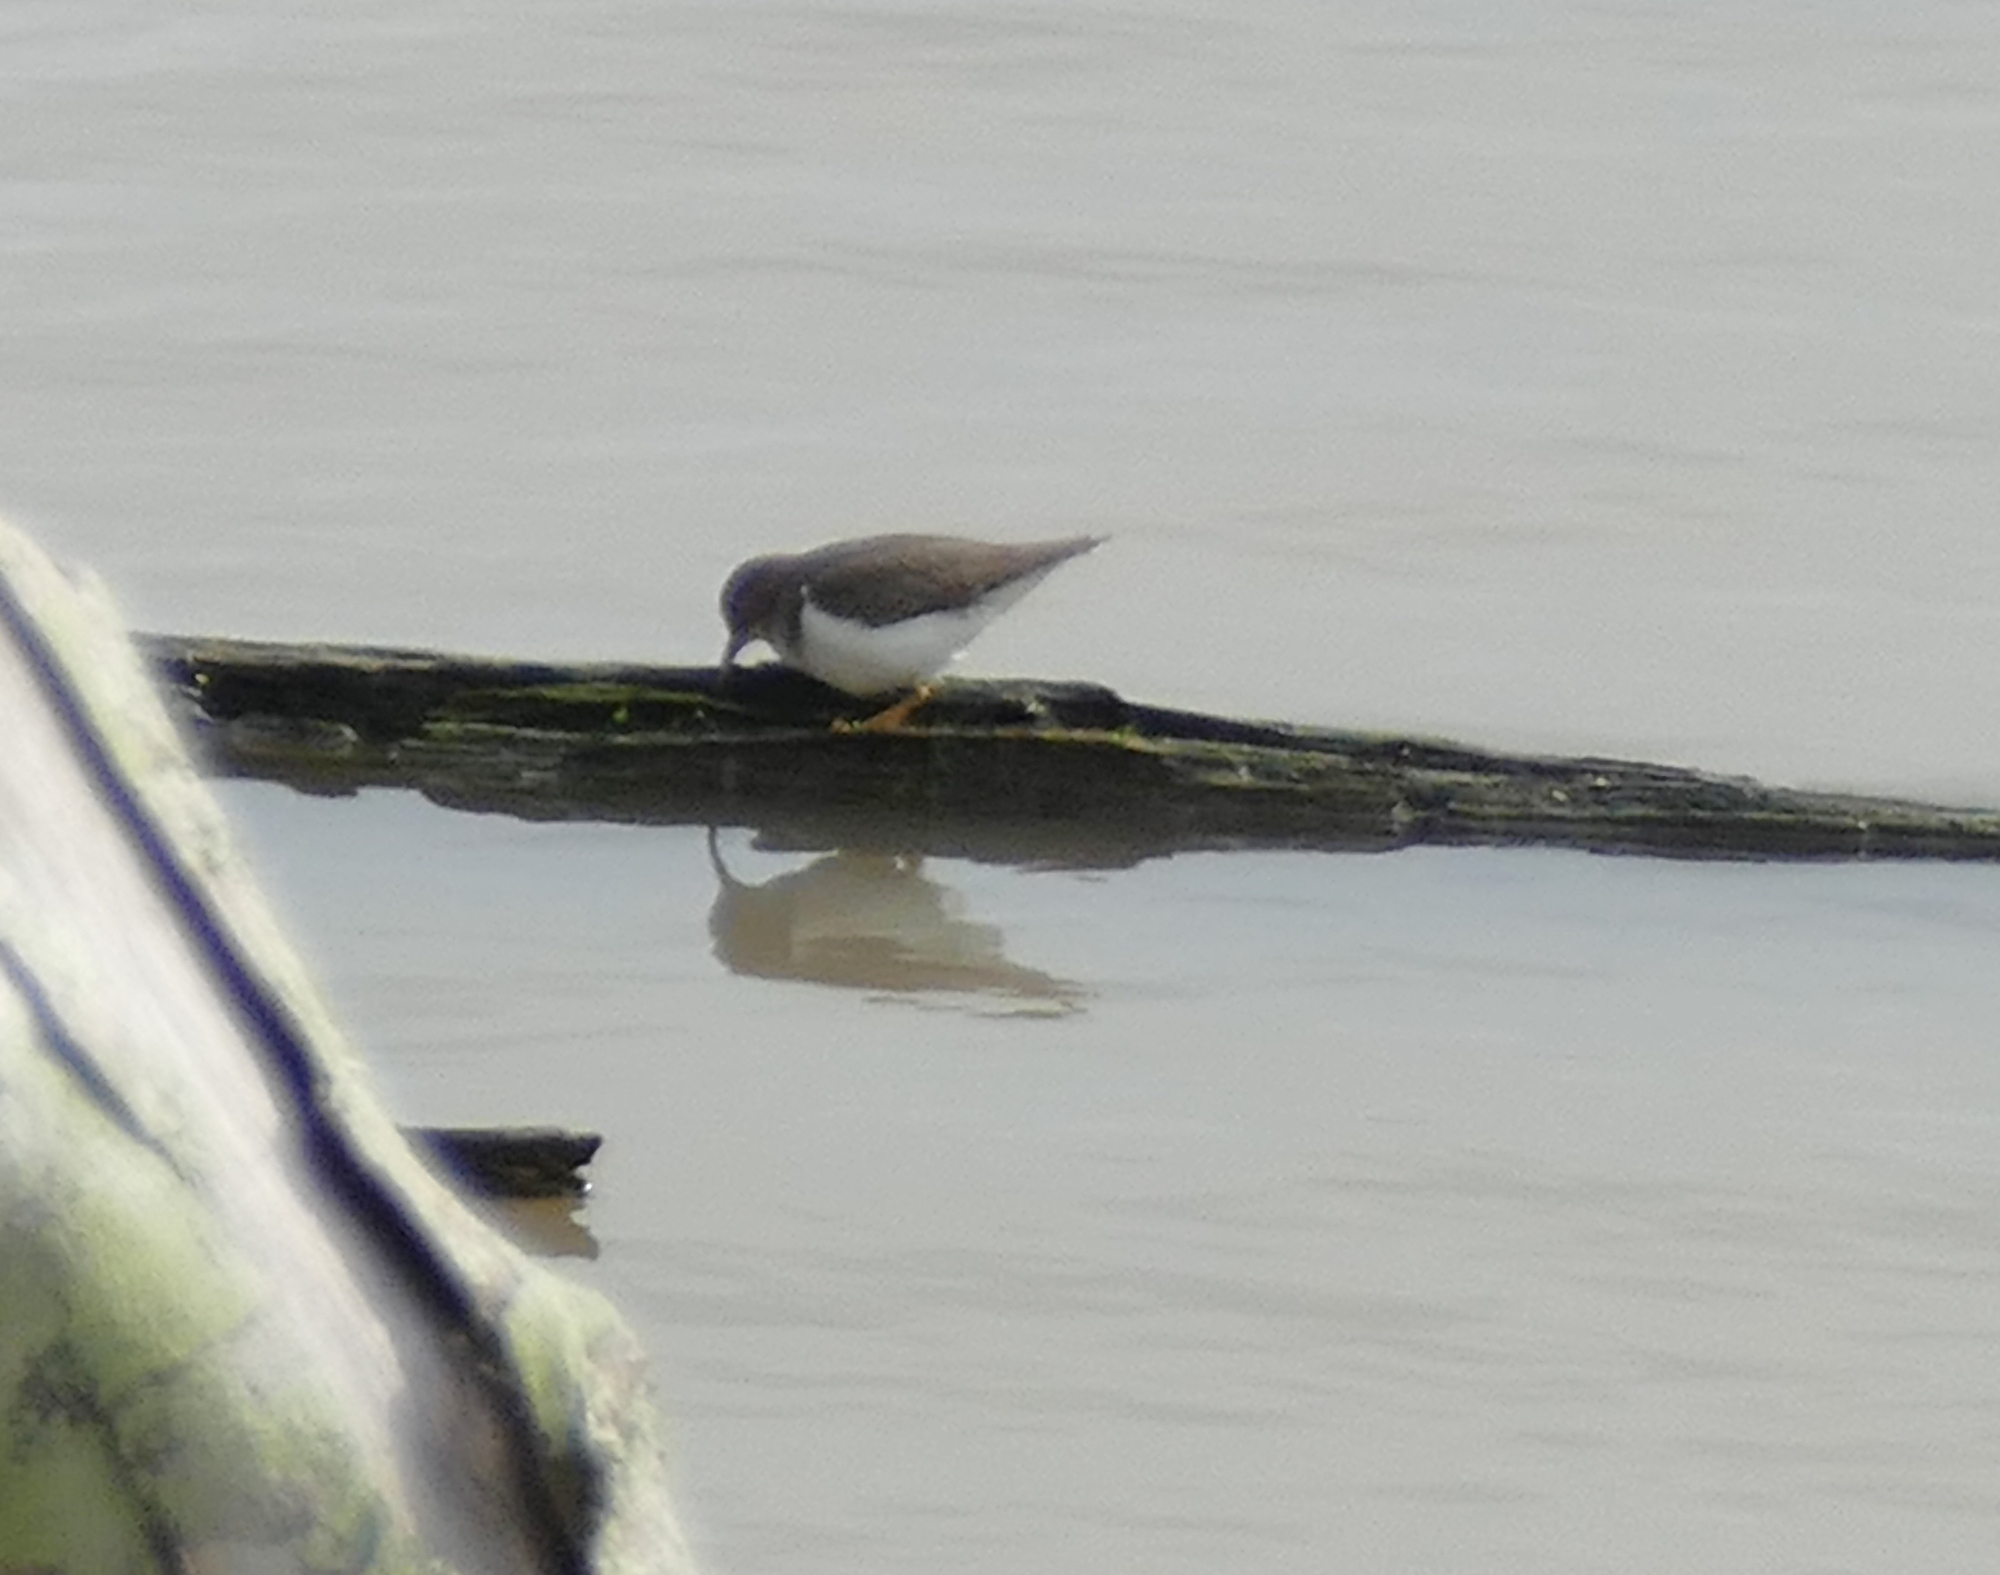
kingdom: Animalia
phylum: Chordata
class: Aves
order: Charadriiformes
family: Scolopacidae
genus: Actitis
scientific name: Actitis macularius
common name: Spotted sandpiper
